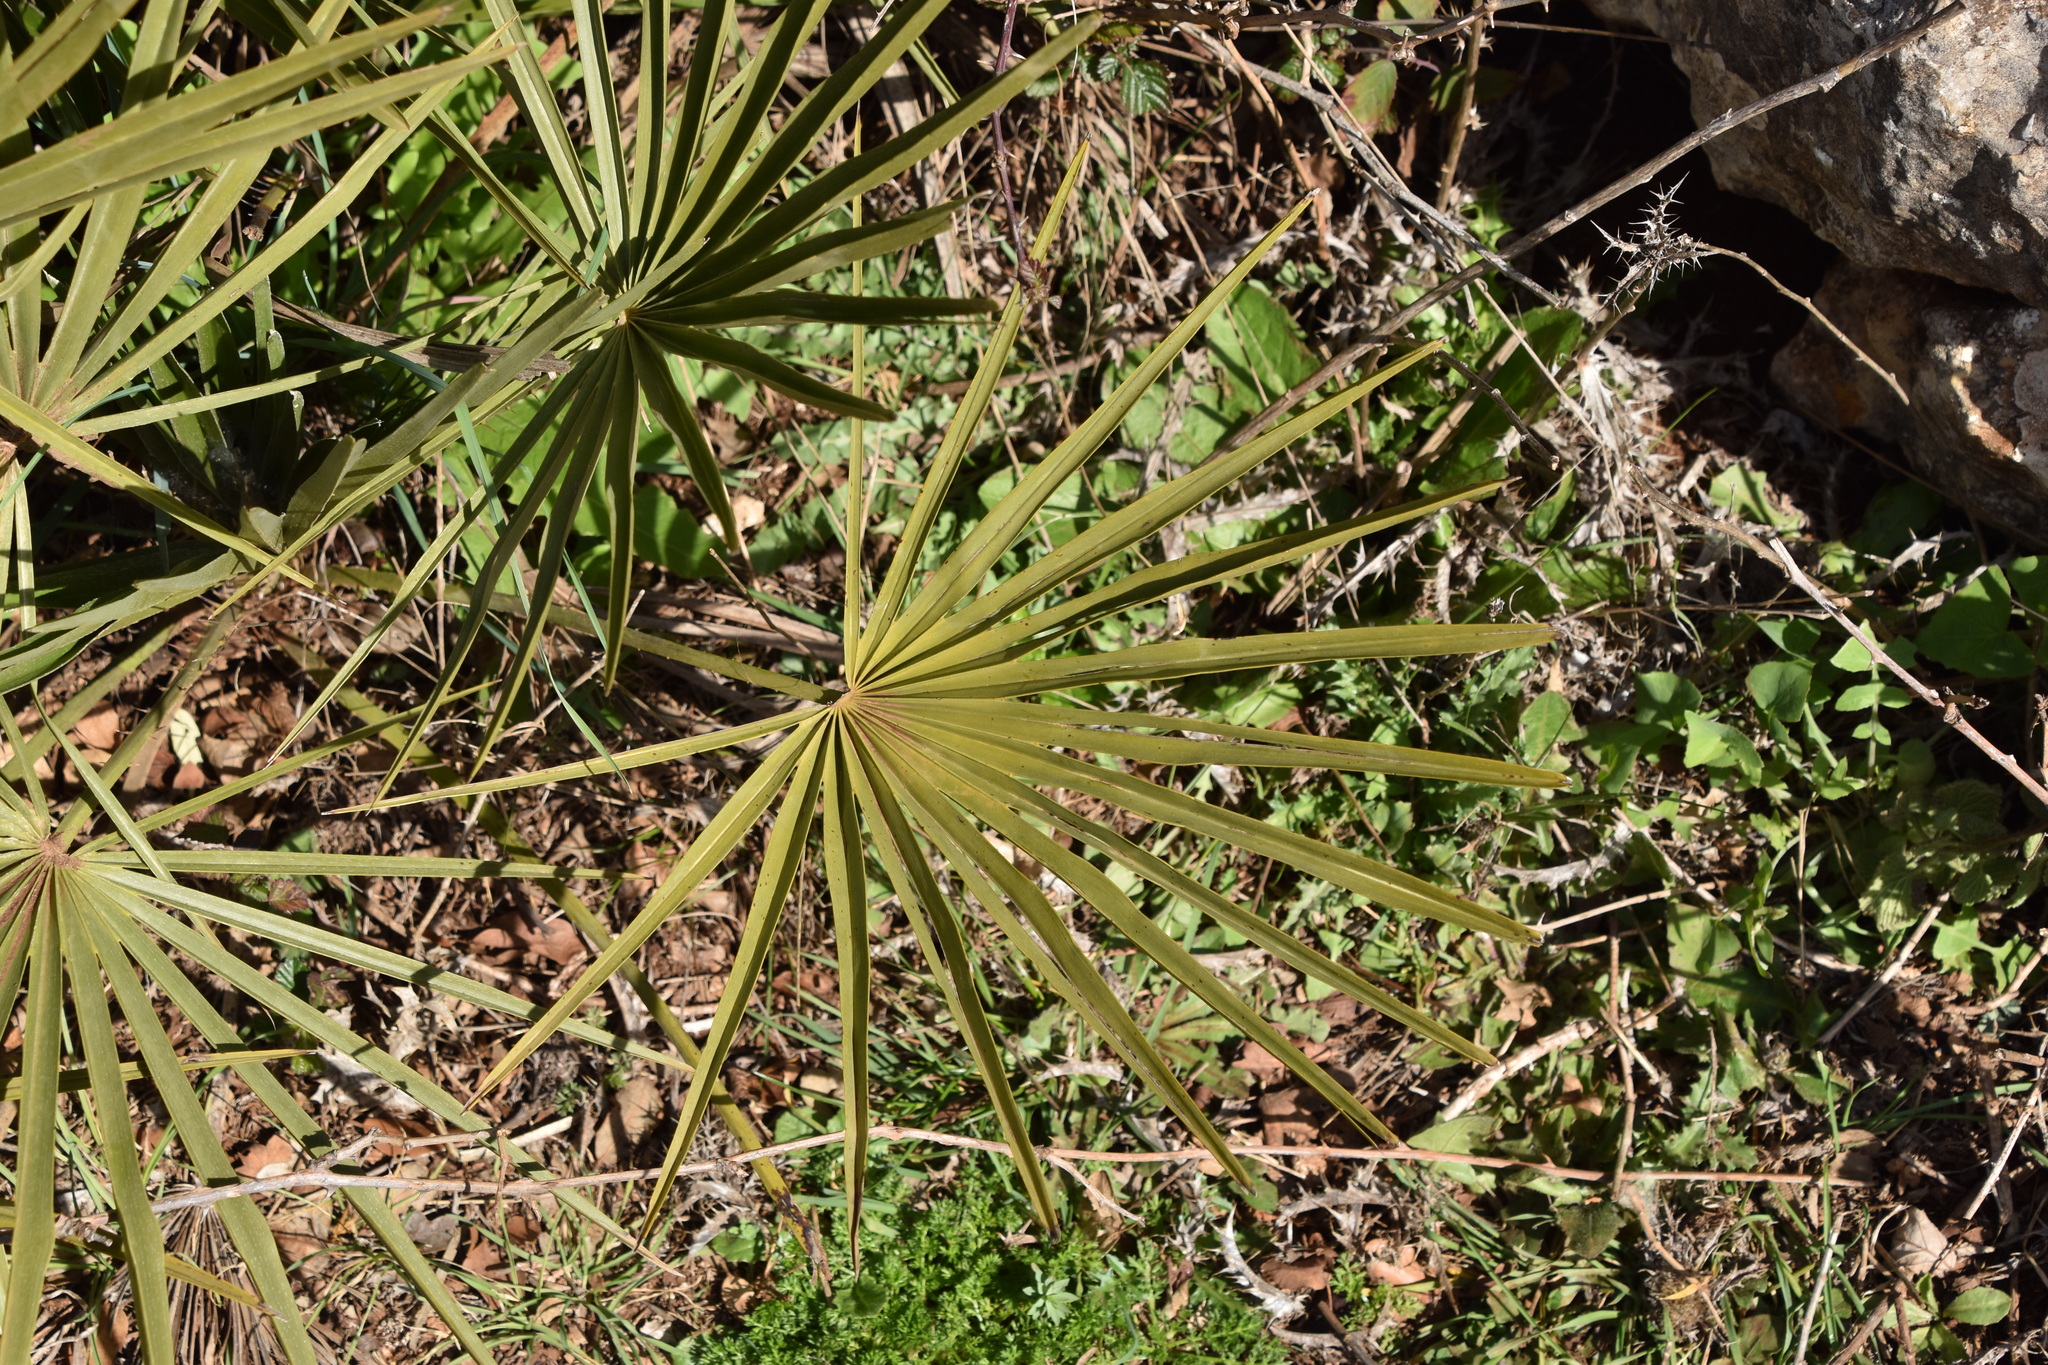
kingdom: Plantae
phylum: Tracheophyta
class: Liliopsida
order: Arecales
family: Arecaceae
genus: Chamaerops
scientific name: Chamaerops humilis
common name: Dwarf fan palm
